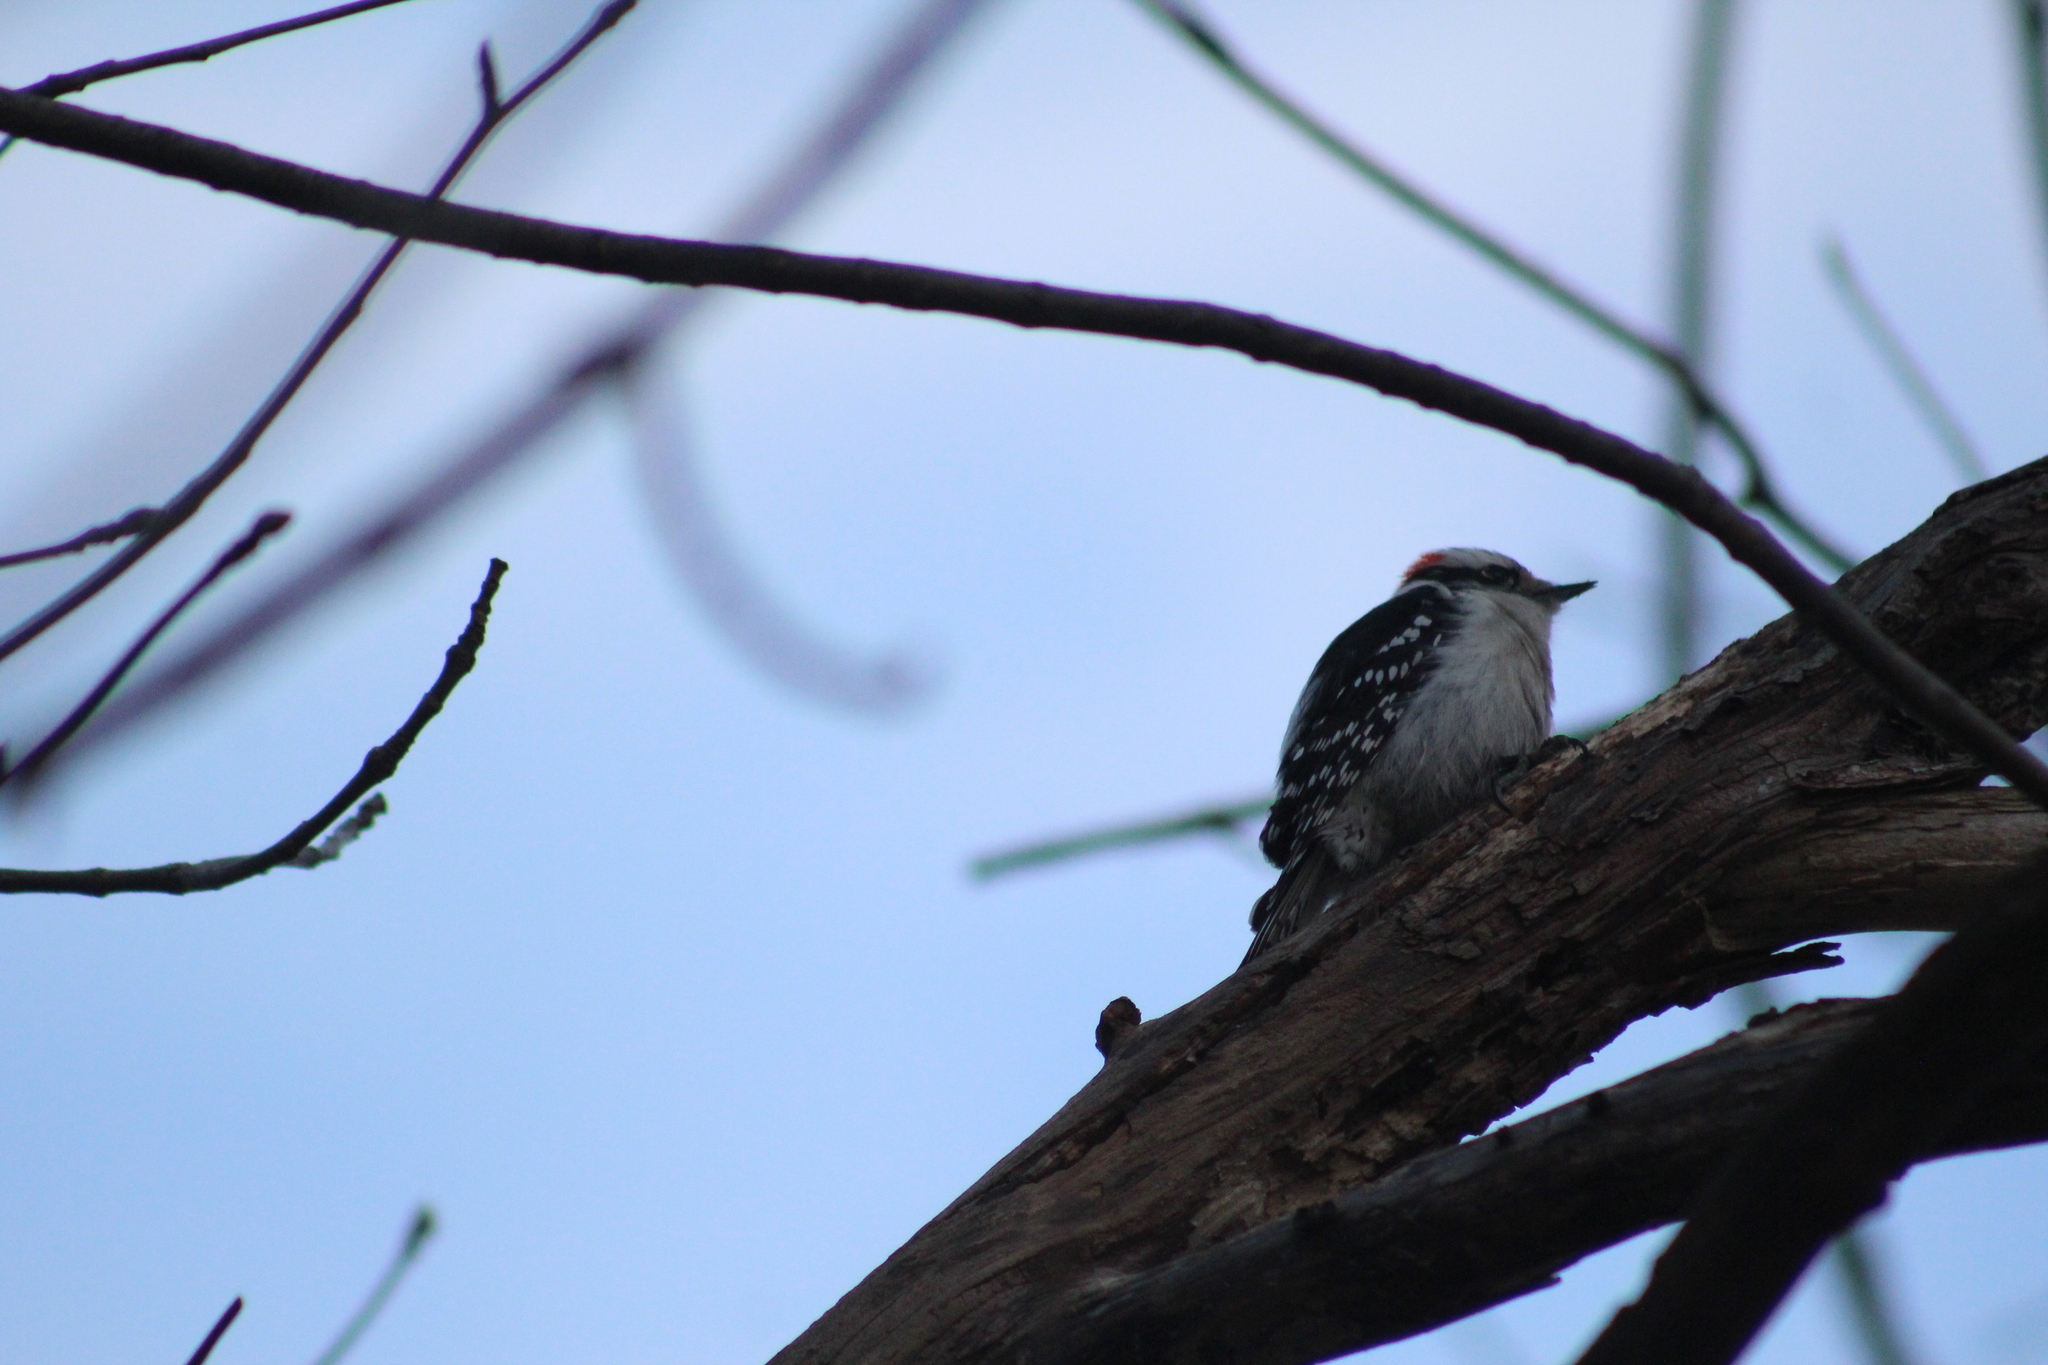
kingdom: Animalia
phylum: Chordata
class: Aves
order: Piciformes
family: Picidae
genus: Dryobates
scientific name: Dryobates pubescens
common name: Downy woodpecker
